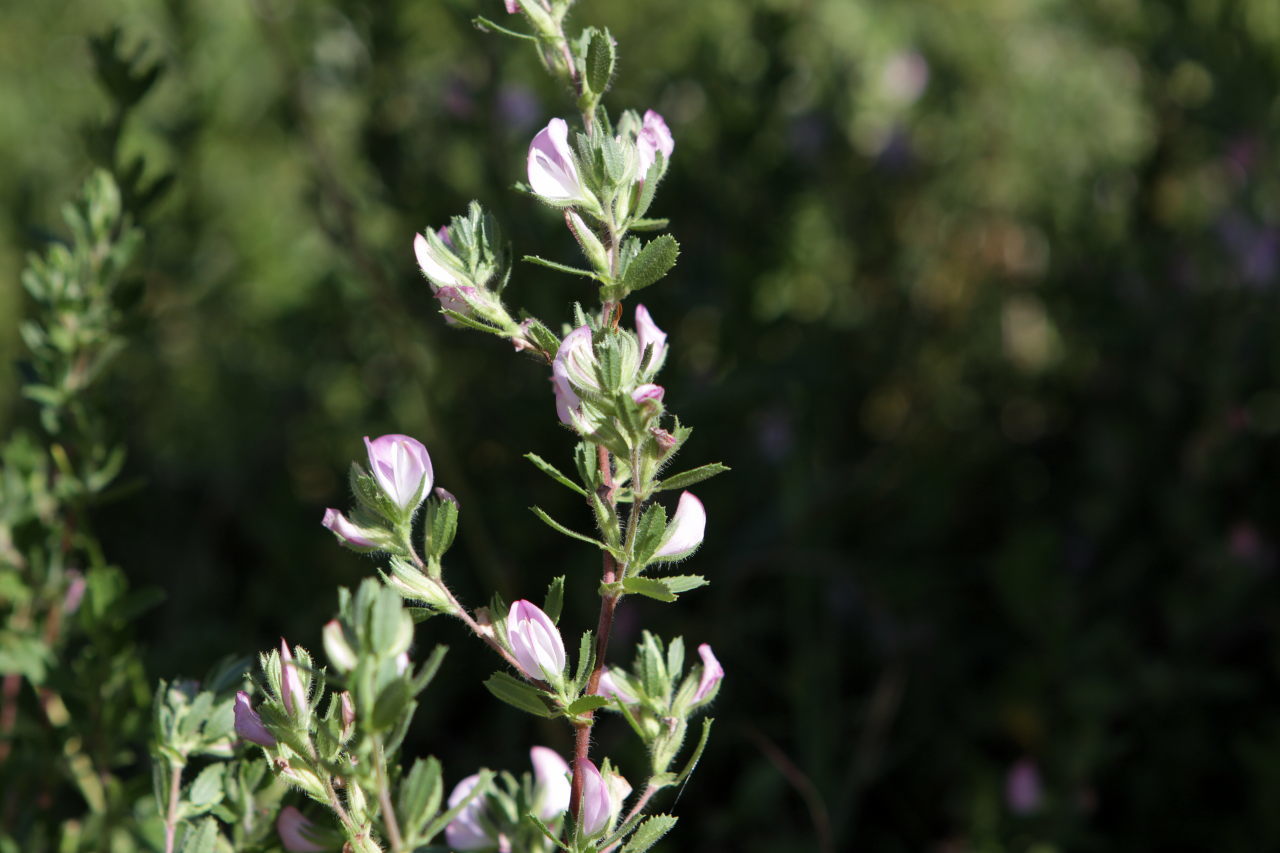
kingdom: Plantae
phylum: Tracheophyta
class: Magnoliopsida
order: Fabales
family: Fabaceae
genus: Ononis
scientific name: Ononis spinosa
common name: Spiny restharrow
